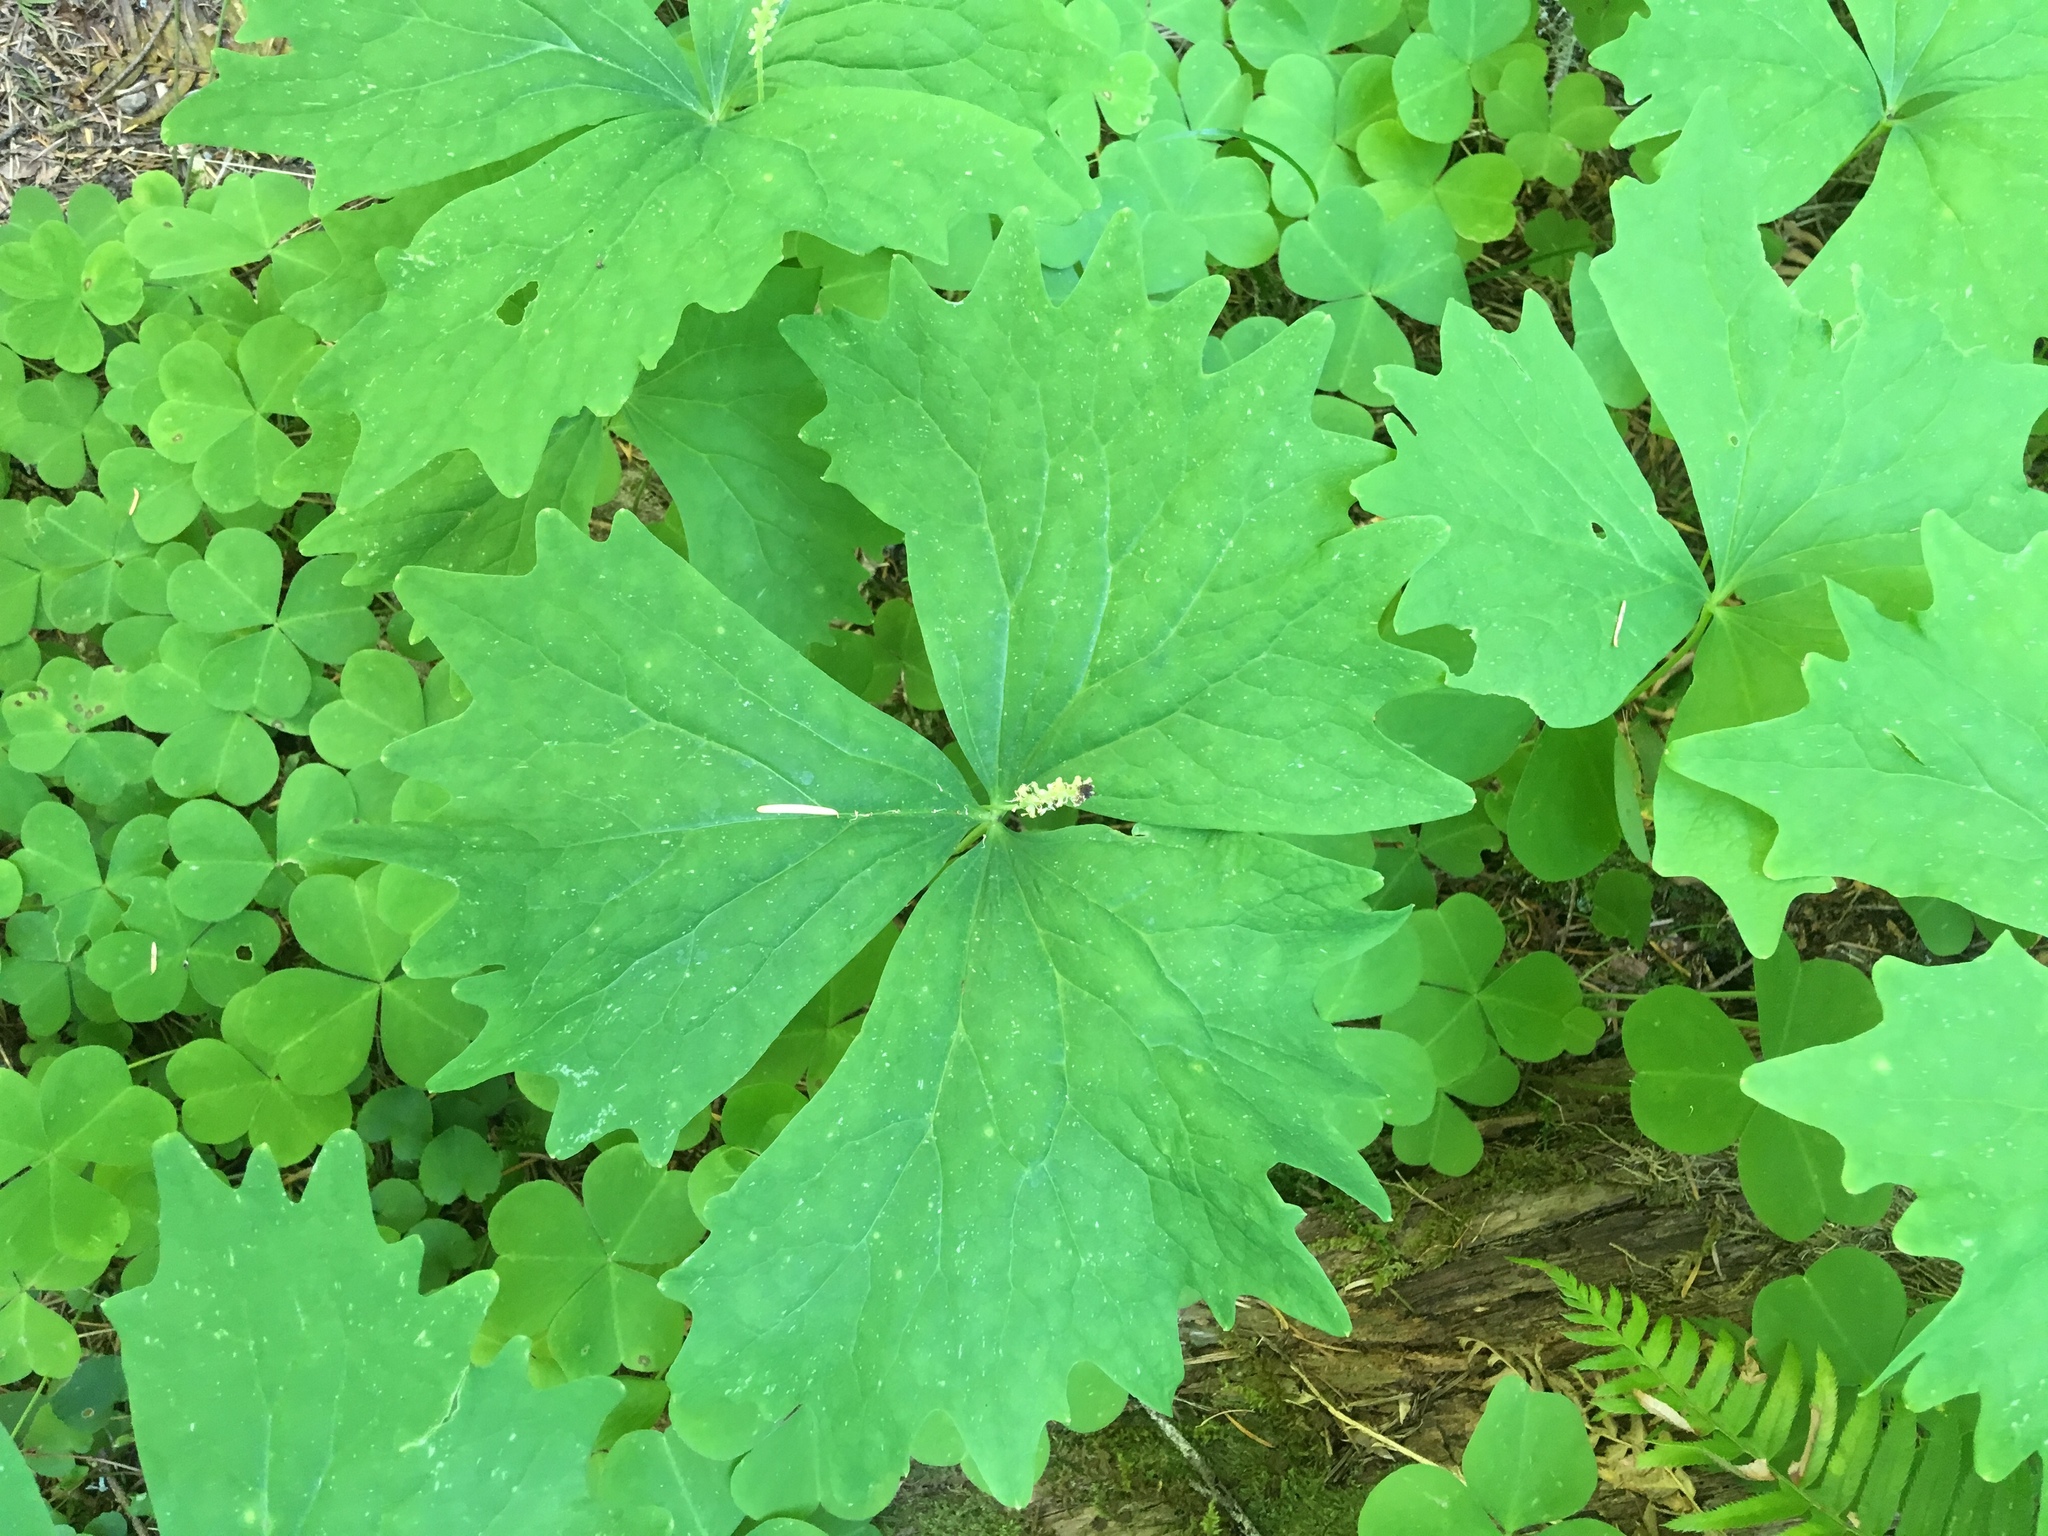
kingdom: Plantae
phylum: Tracheophyta
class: Magnoliopsida
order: Ranunculales
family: Berberidaceae
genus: Achlys
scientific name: Achlys triphylla
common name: Vanilla-leaf
